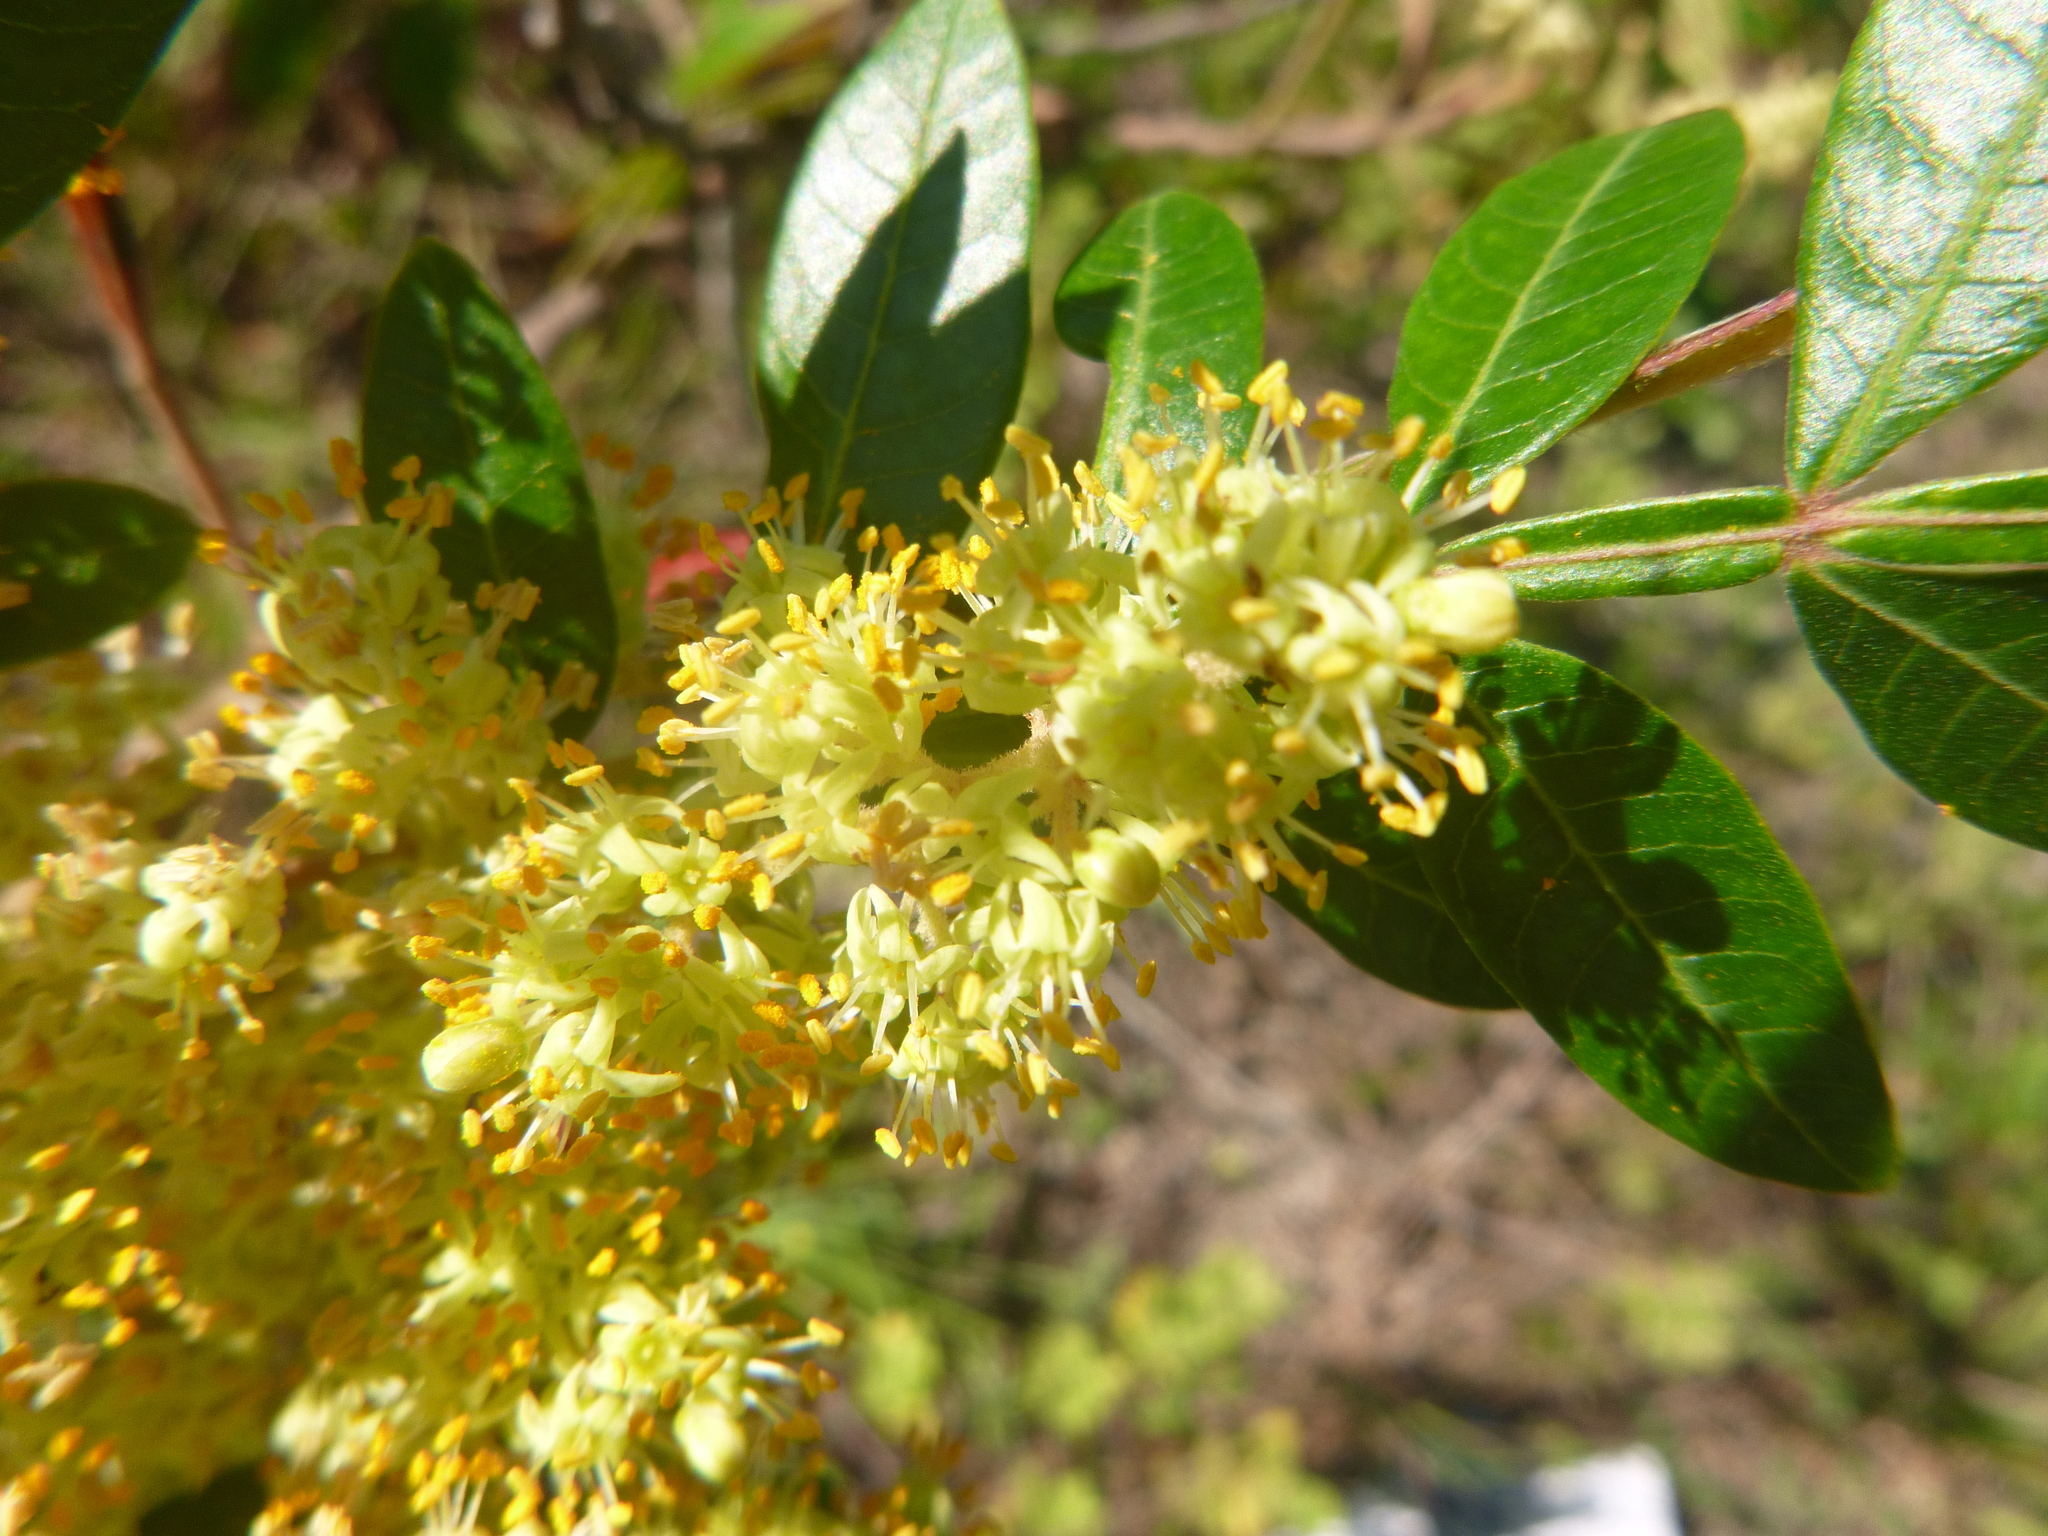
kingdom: Plantae
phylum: Tracheophyta
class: Magnoliopsida
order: Sapindales
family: Anacardiaceae
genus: Rhus
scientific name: Rhus copallina
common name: Shining sumac
